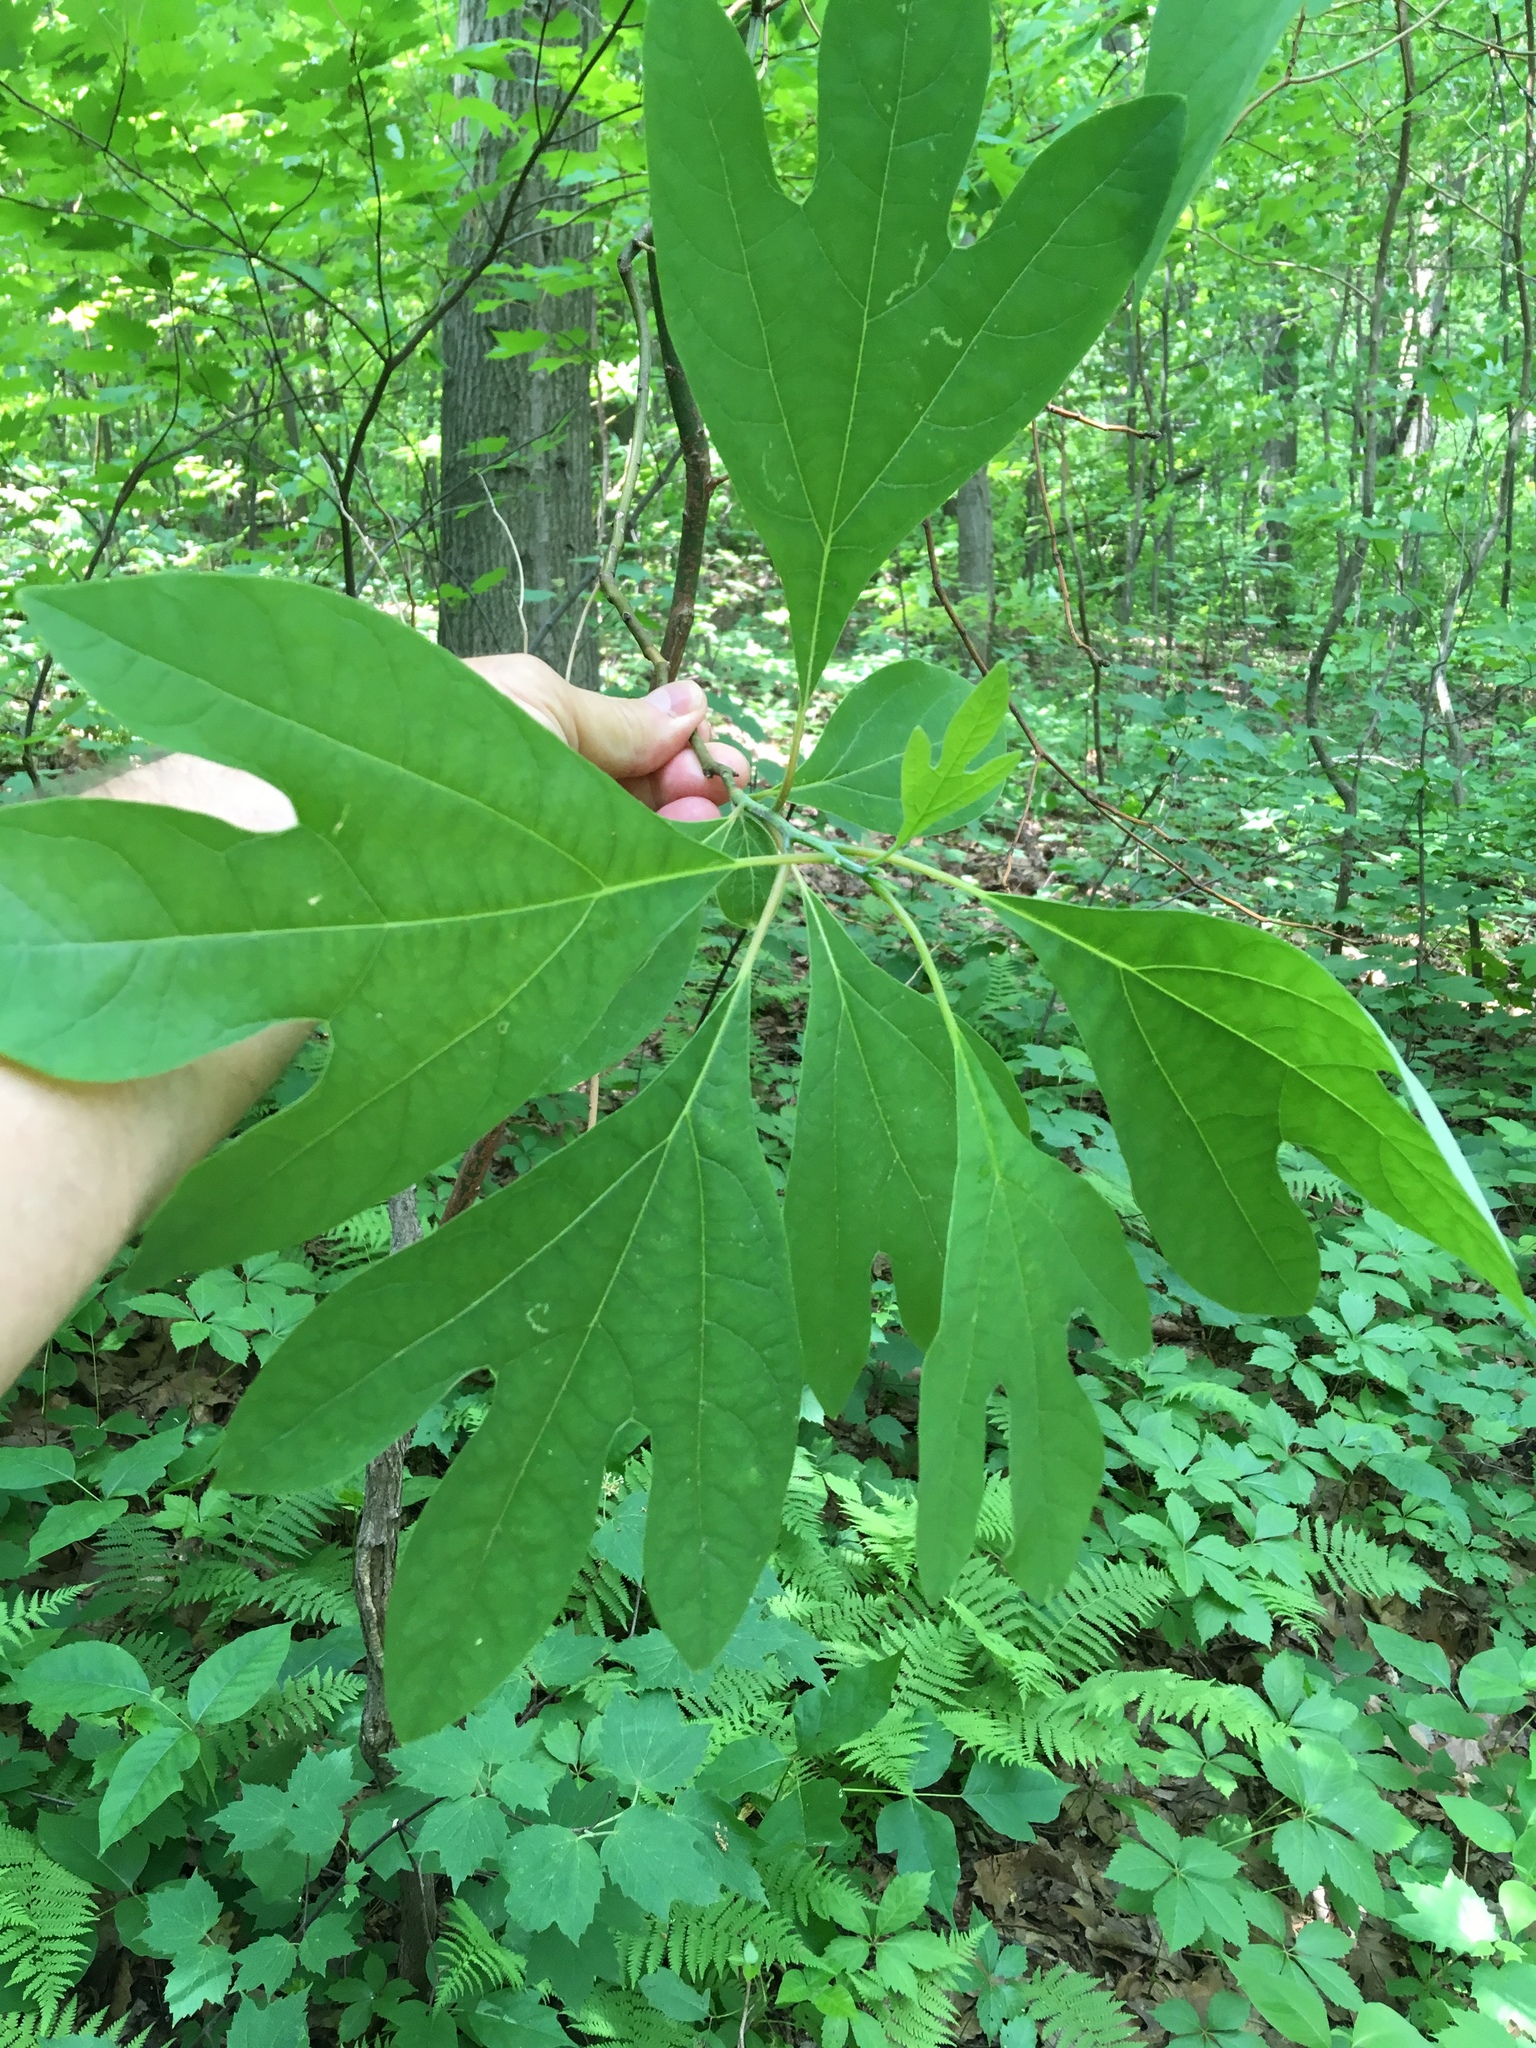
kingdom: Plantae
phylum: Tracheophyta
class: Magnoliopsida
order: Laurales
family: Lauraceae
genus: Sassafras
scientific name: Sassafras albidum
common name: Sassafras
